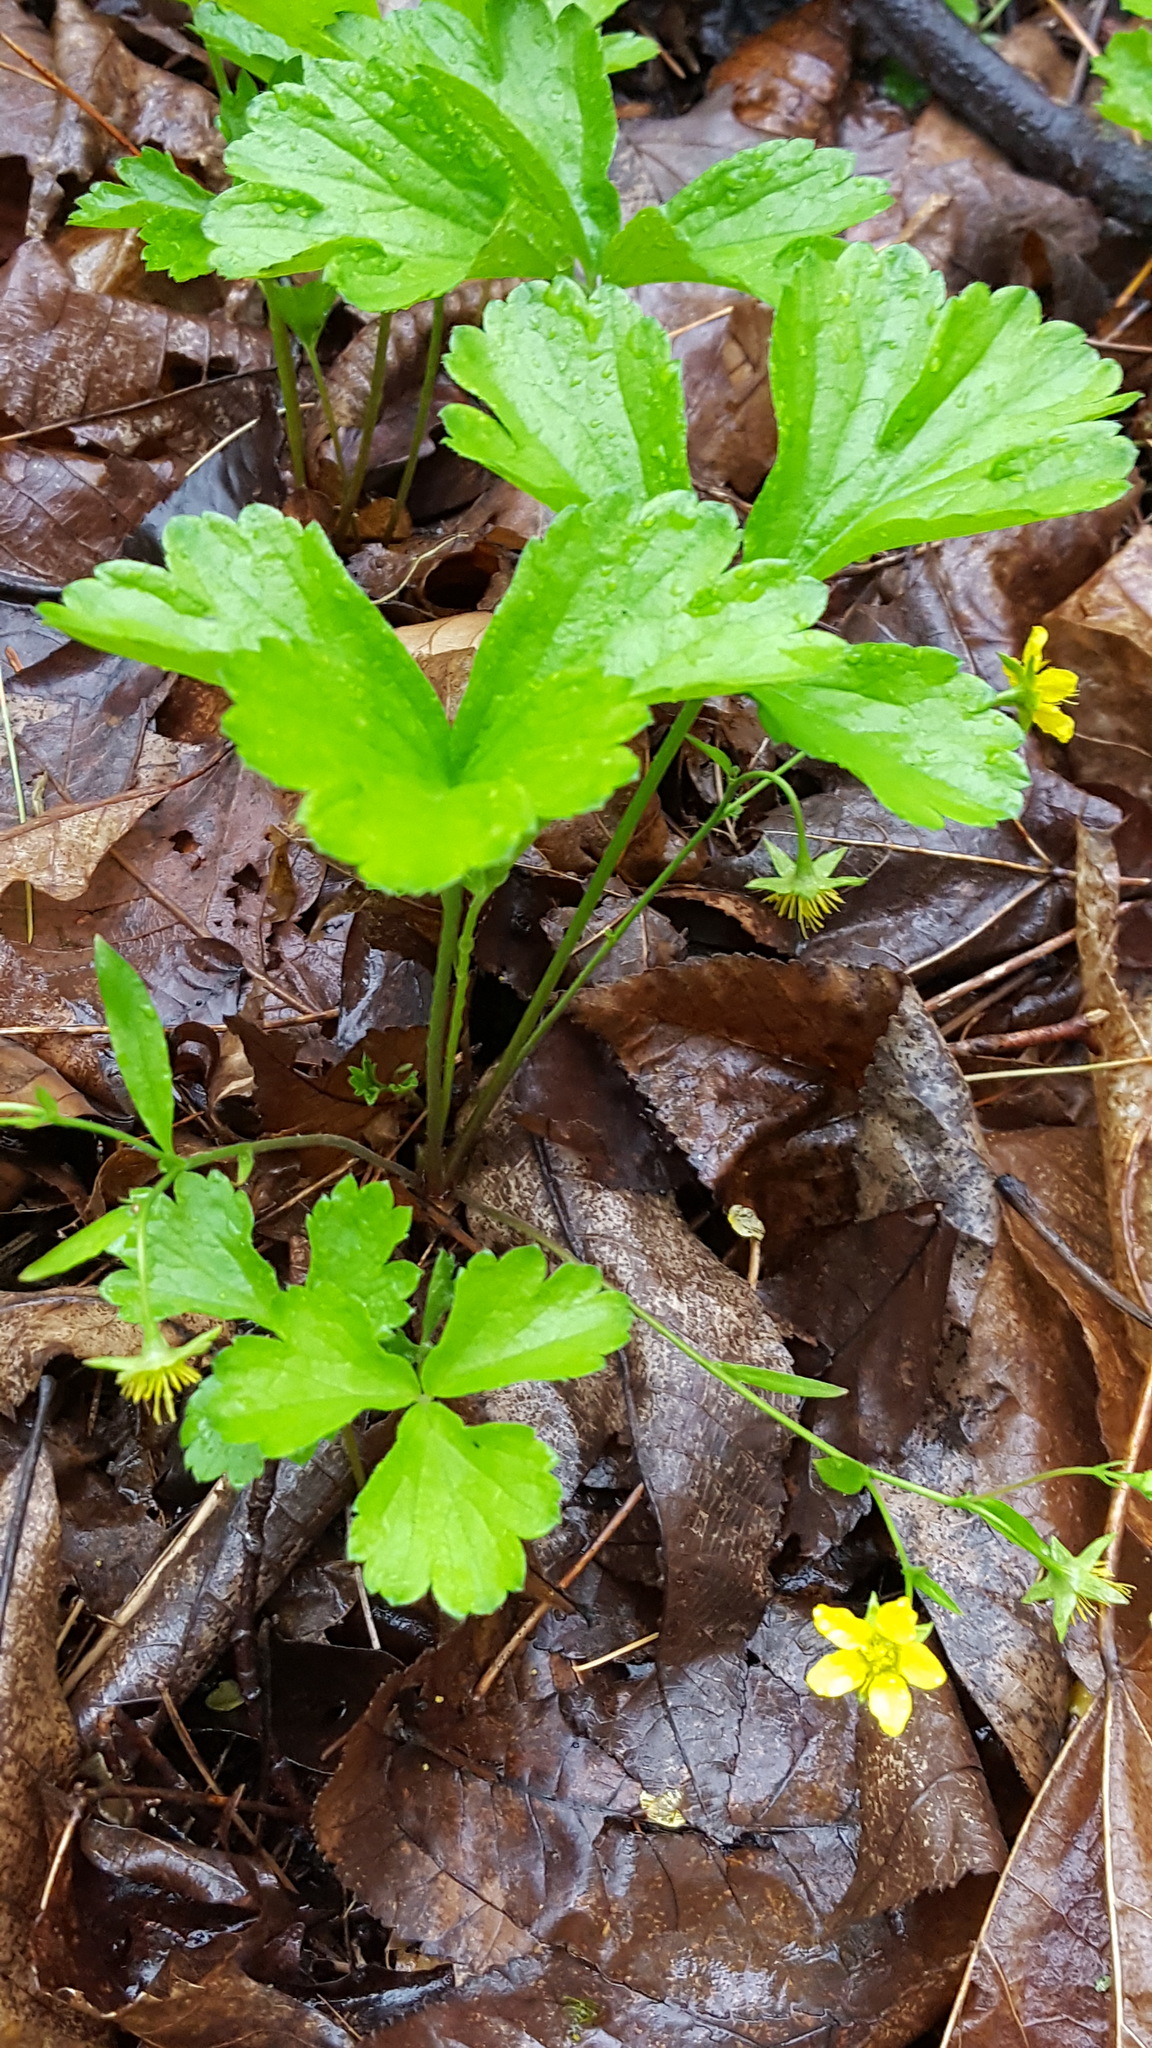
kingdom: Plantae
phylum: Tracheophyta
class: Magnoliopsida
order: Rosales
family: Rosaceae
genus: Geum
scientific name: Geum fragarioides
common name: Appalachian barren strawberry
